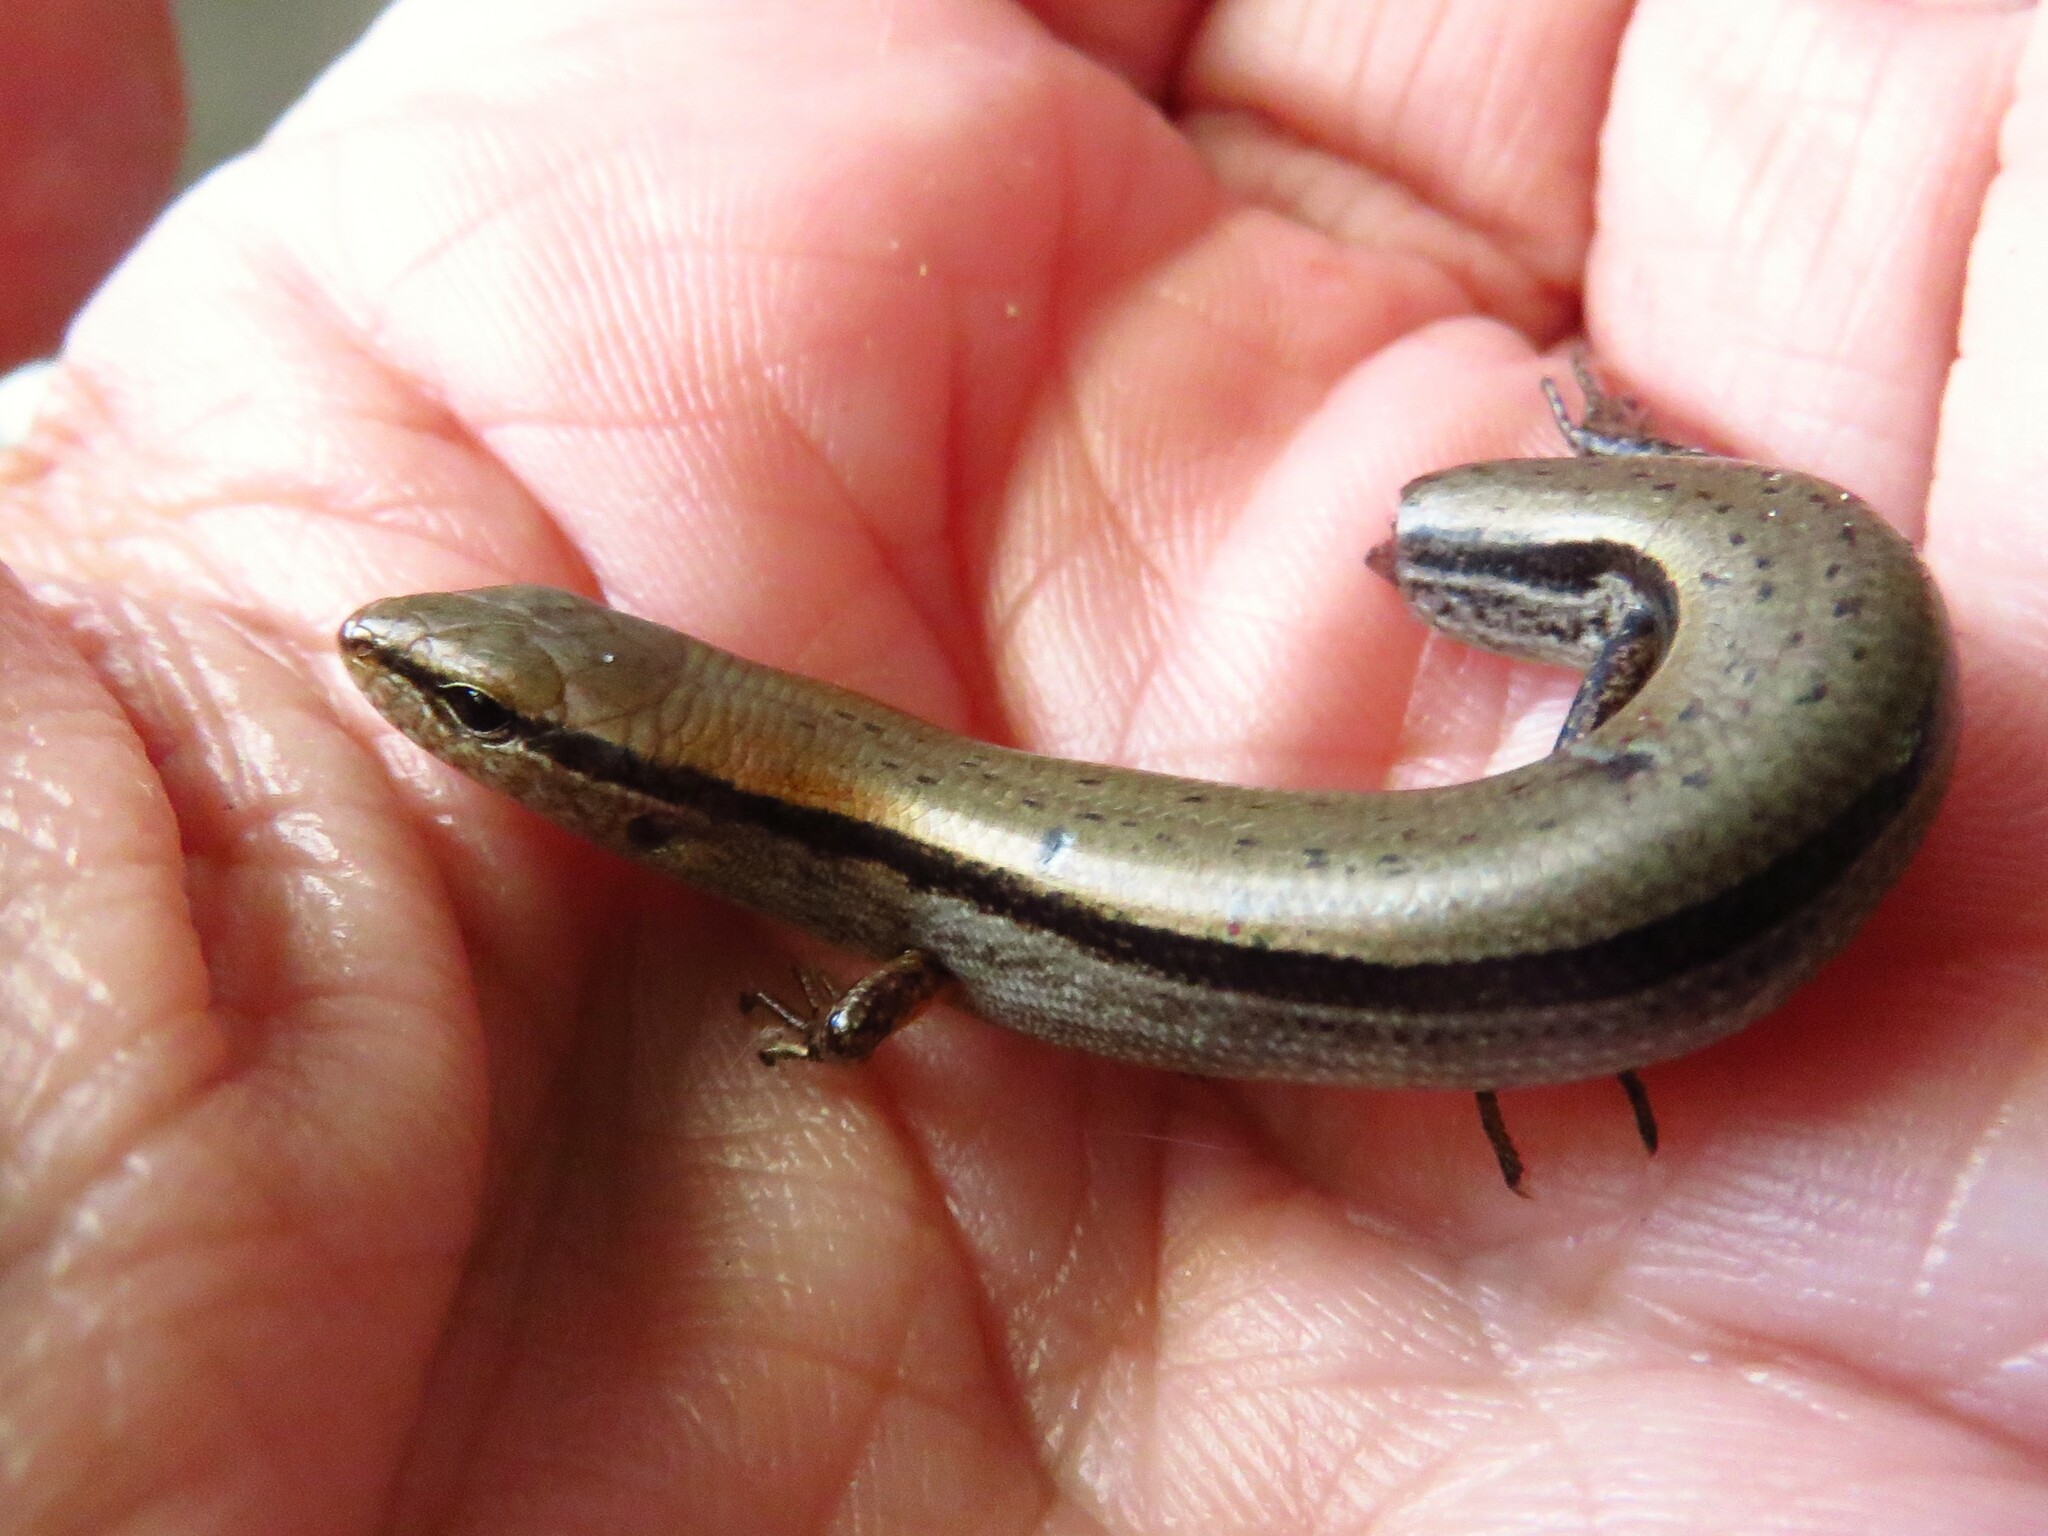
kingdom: Animalia
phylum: Chordata
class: Squamata
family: Scincidae
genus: Scincella
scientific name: Scincella lateralis
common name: Ground skink
